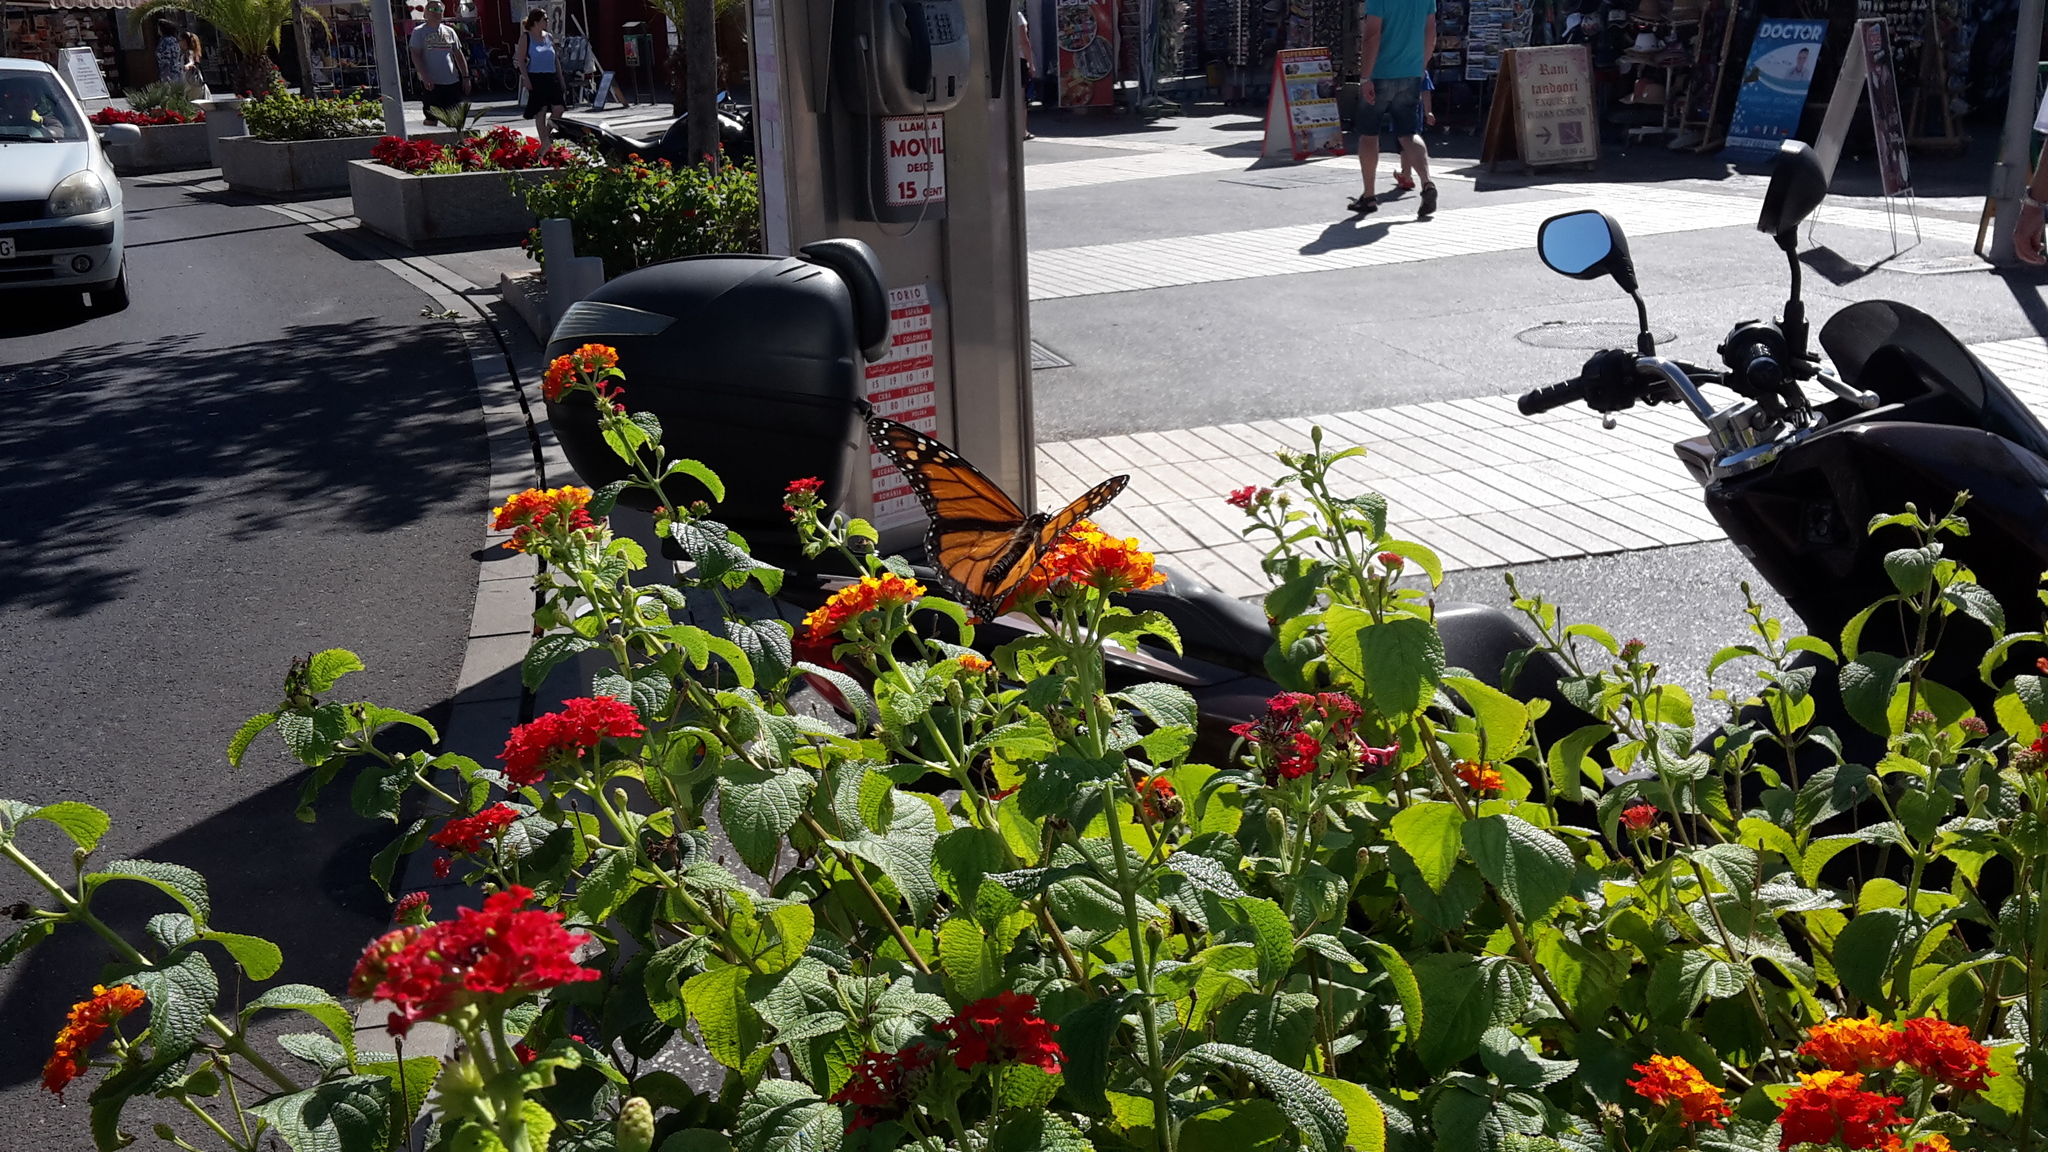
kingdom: Animalia
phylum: Arthropoda
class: Insecta
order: Lepidoptera
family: Nymphalidae
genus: Danaus
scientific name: Danaus plexippus
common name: Monarch
